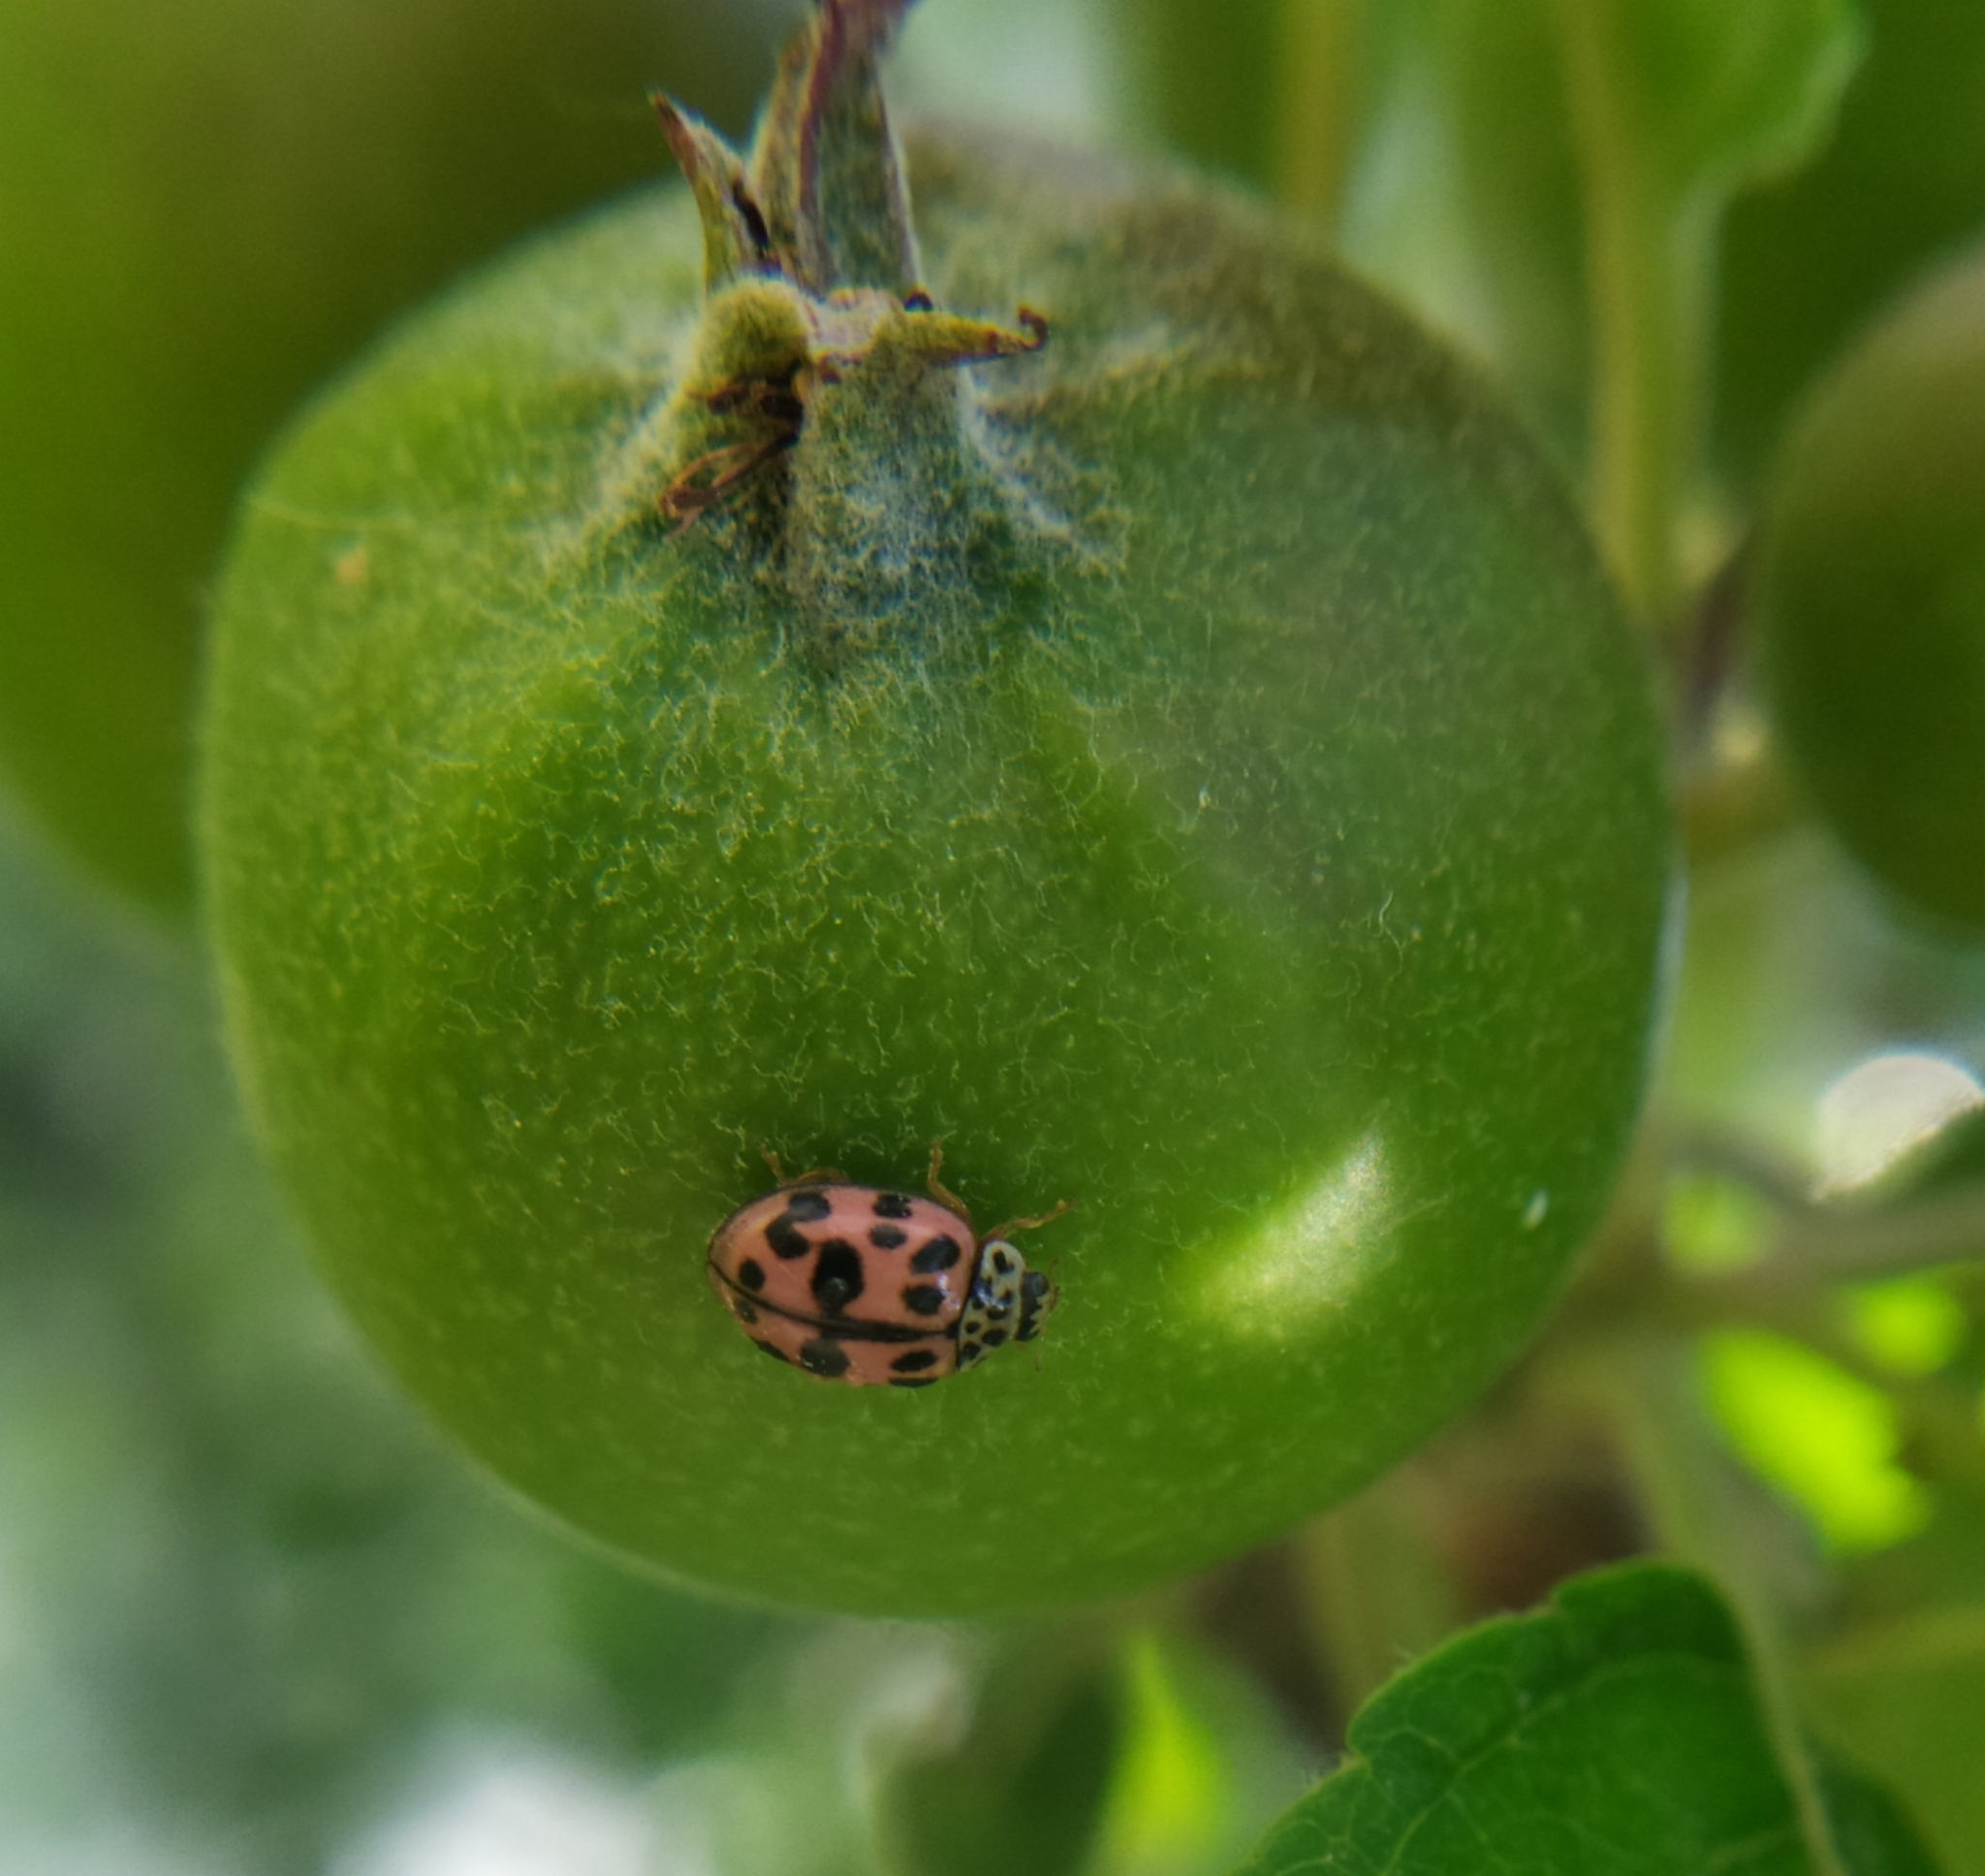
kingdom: Animalia
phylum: Arthropoda
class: Insecta
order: Coleoptera
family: Coccinellidae
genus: Oenopia
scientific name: Oenopia conglobata
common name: Ladybird beetle
